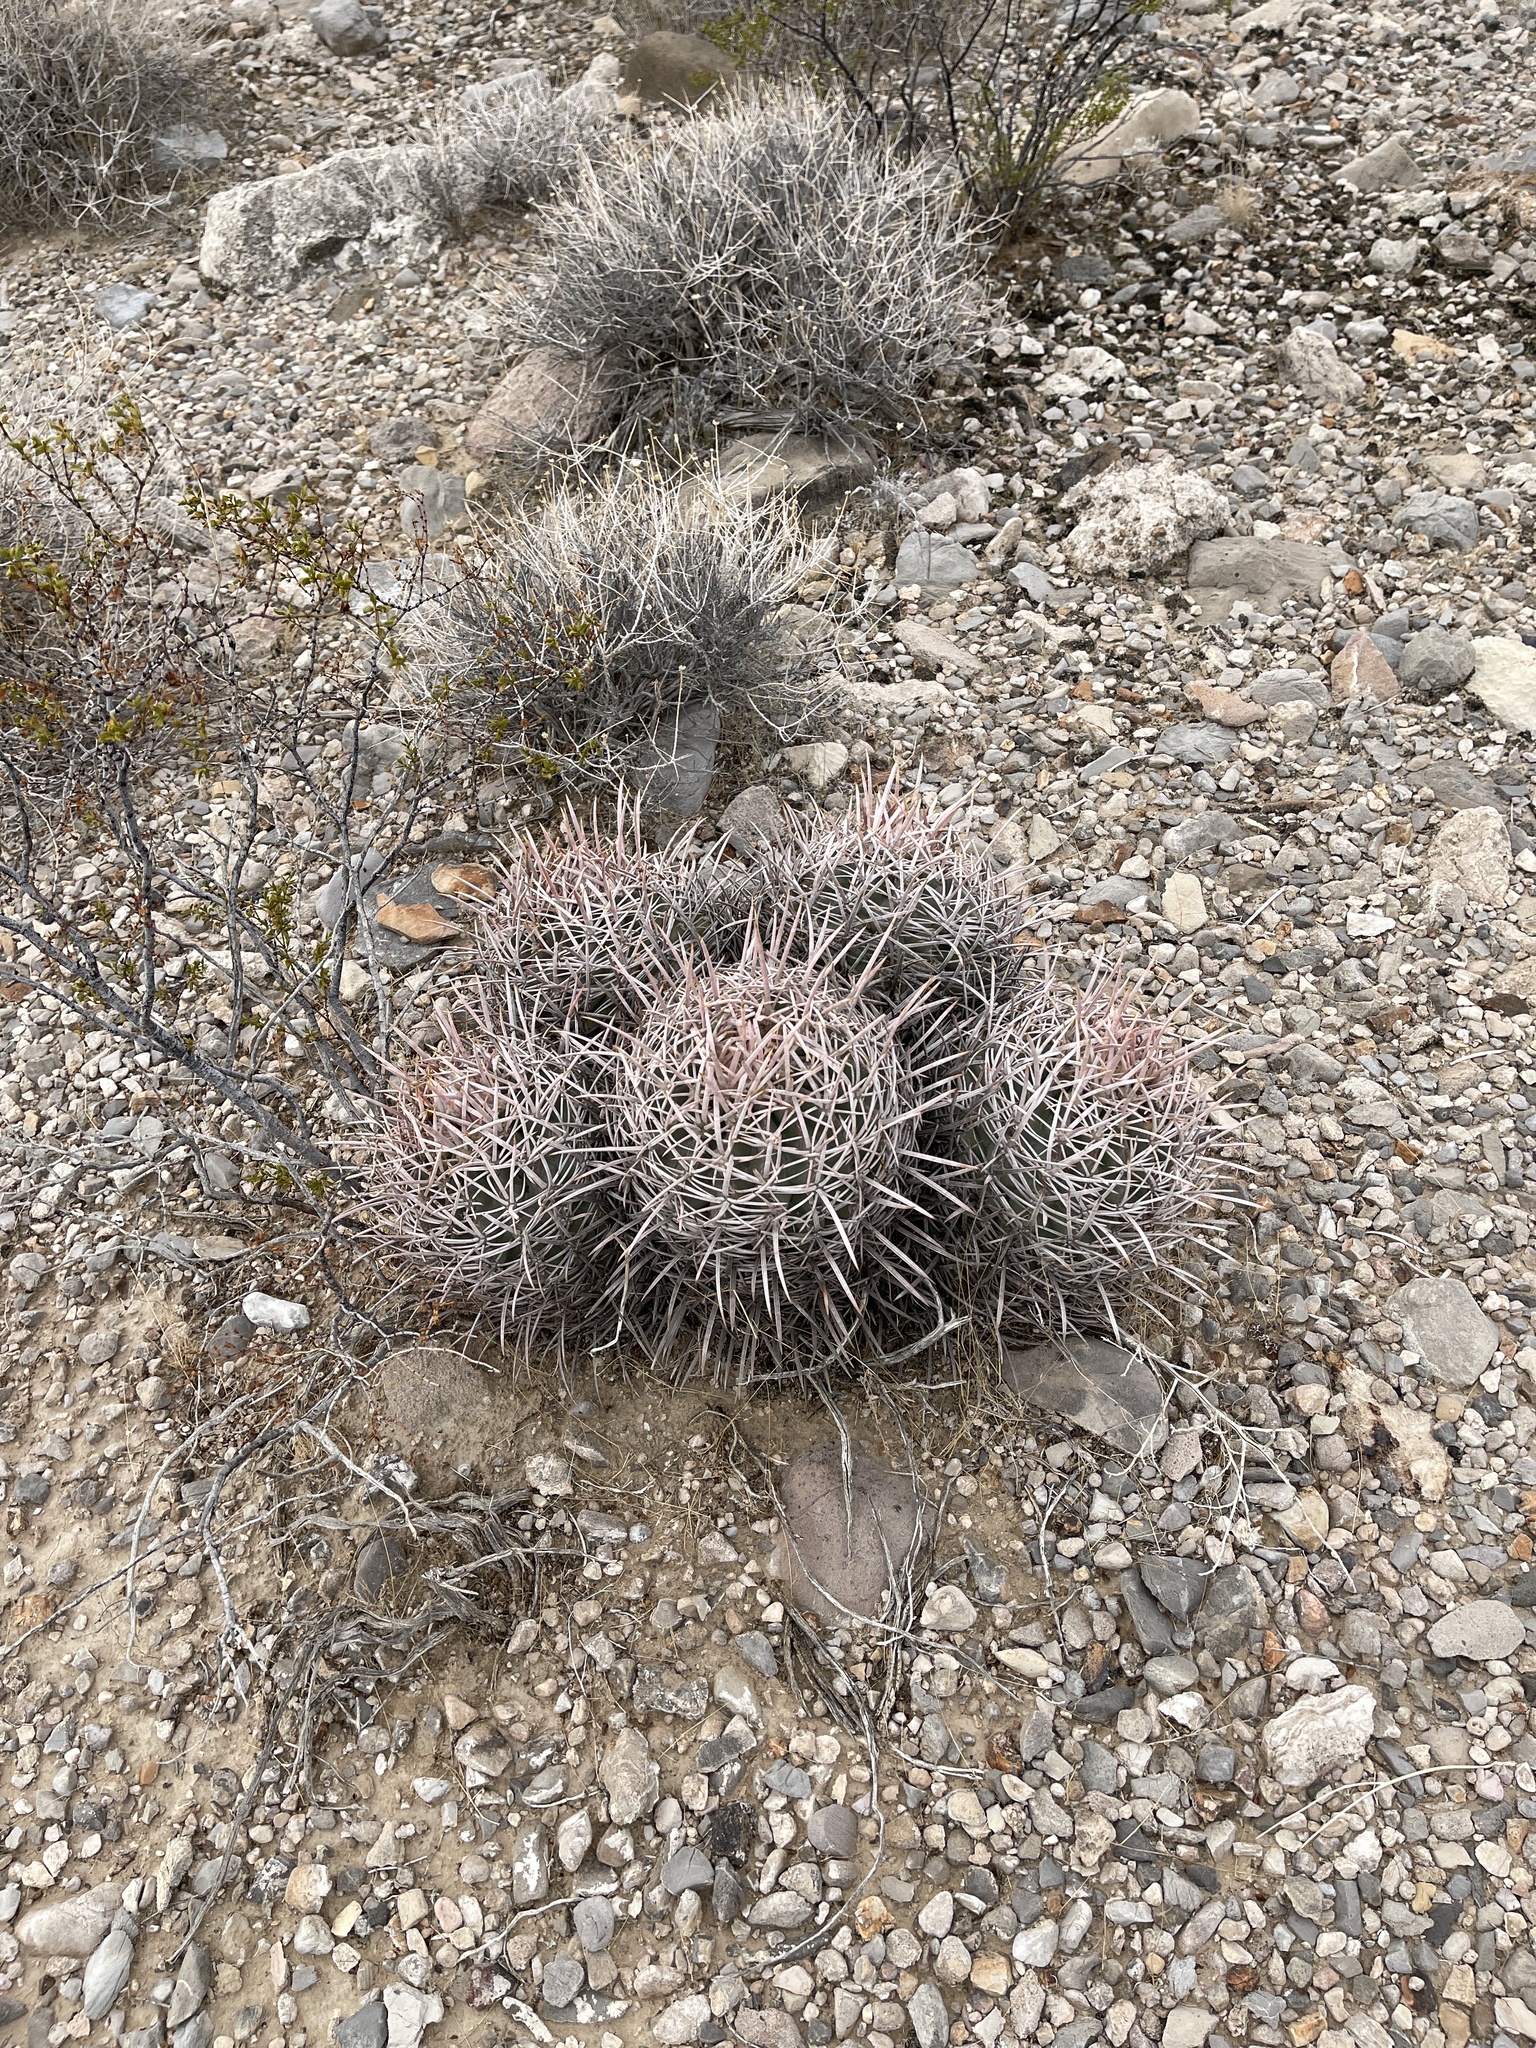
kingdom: Plantae
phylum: Tracheophyta
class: Magnoliopsida
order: Caryophyllales
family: Cactaceae
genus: Echinocactus
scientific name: Echinocactus polycephalus
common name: Cottontop cactus
